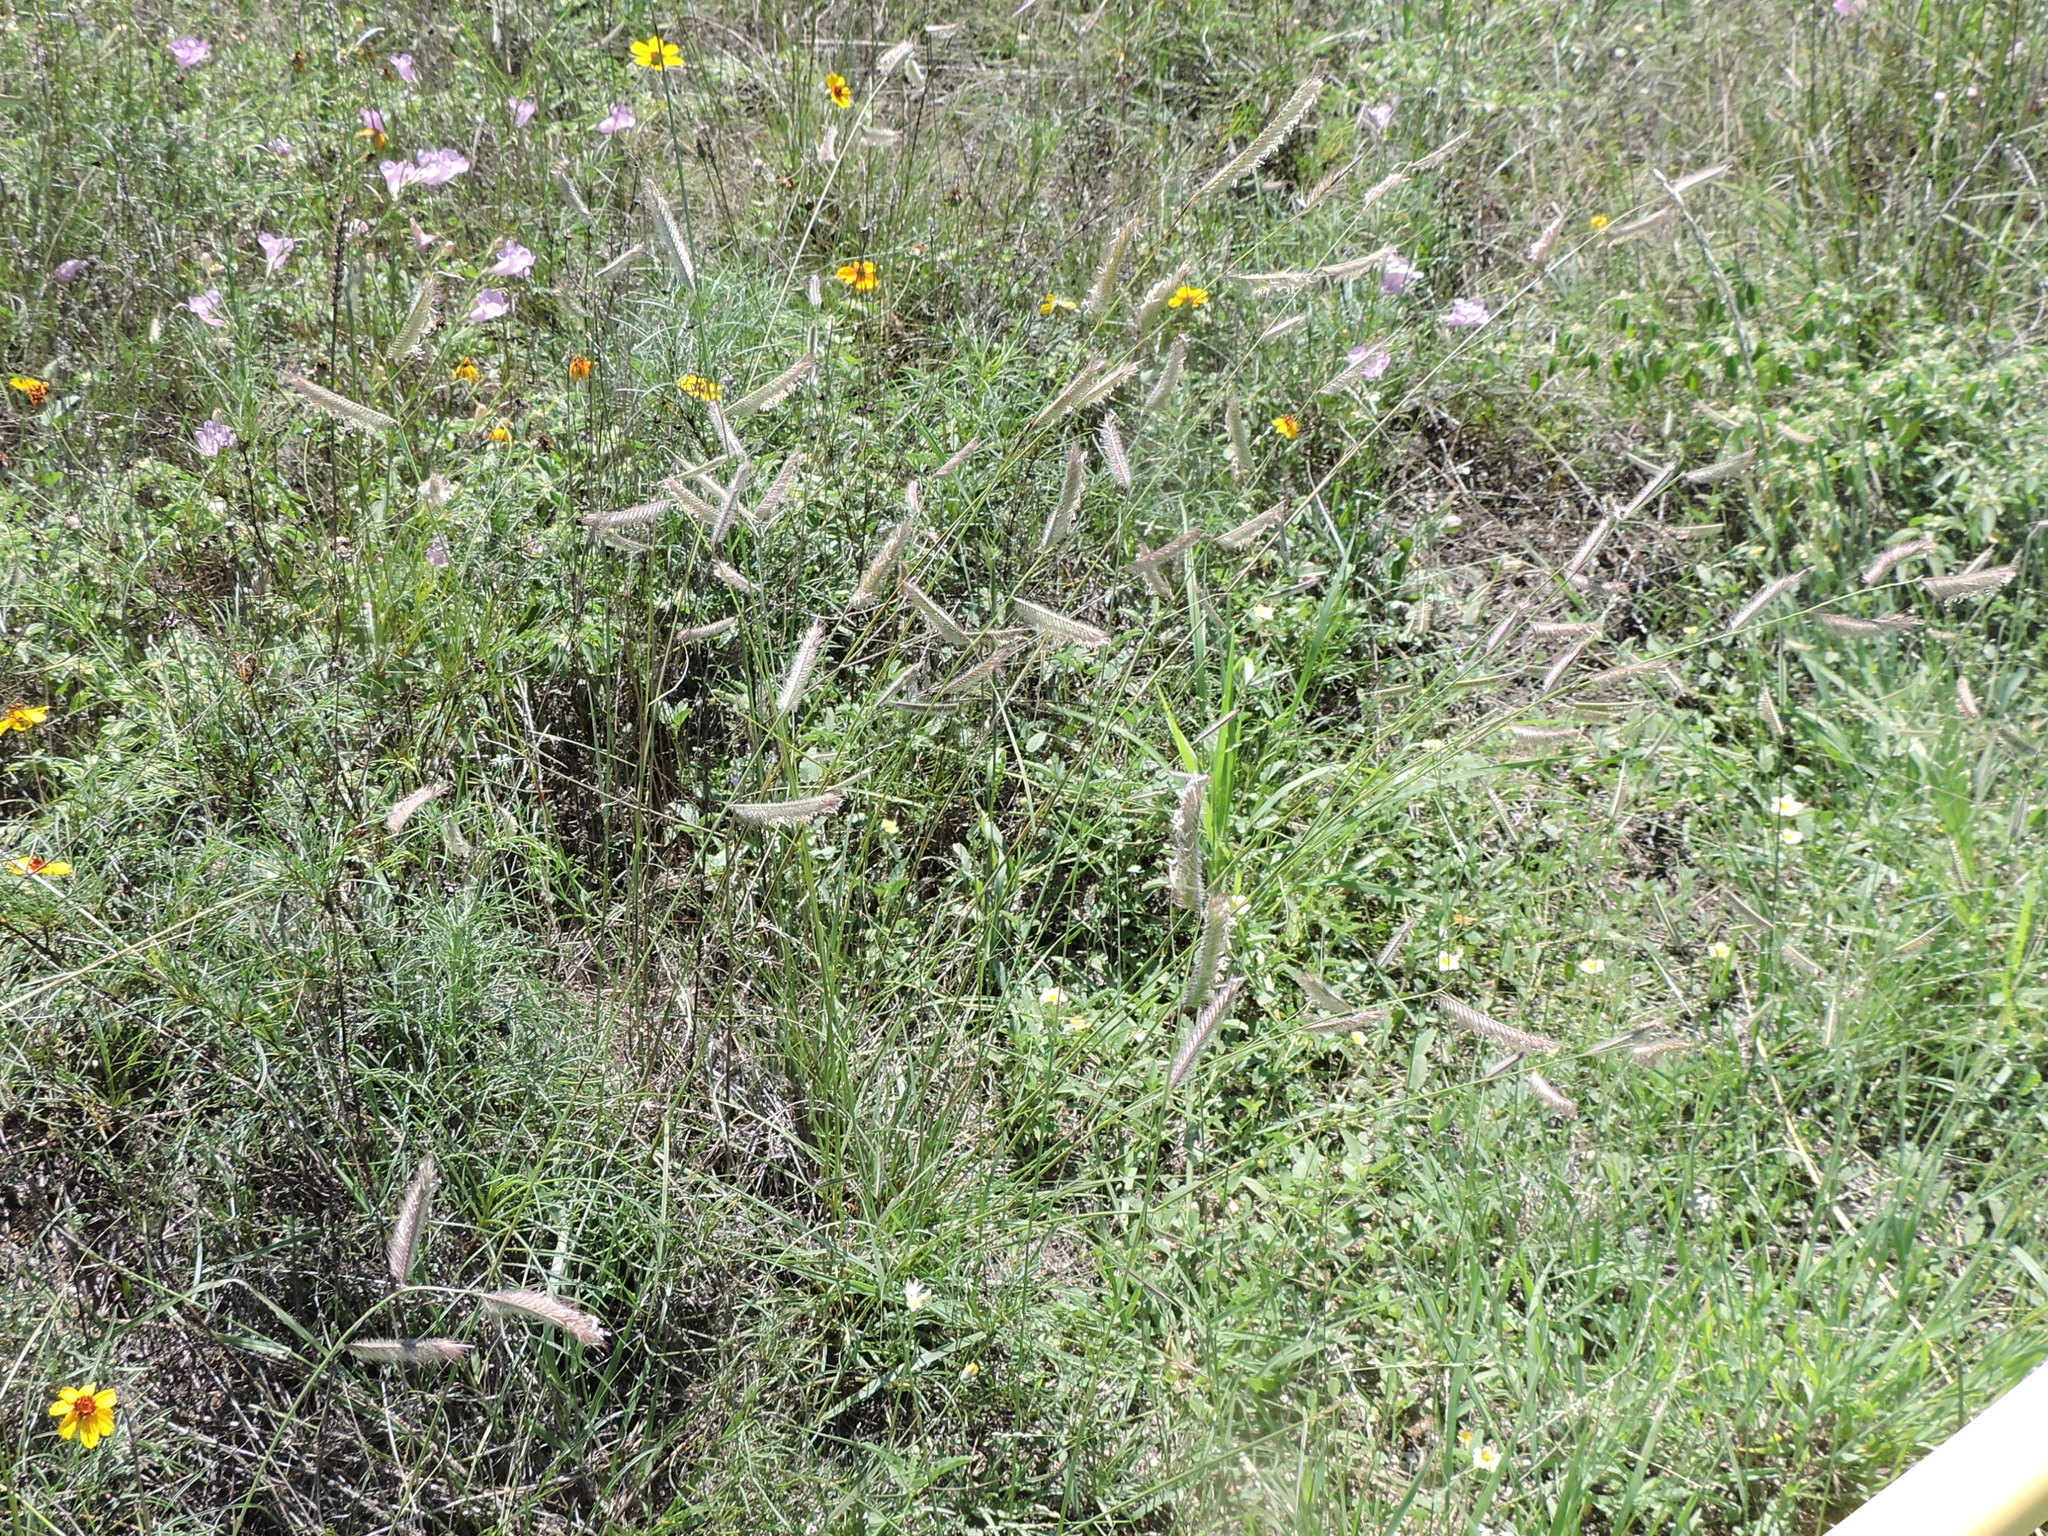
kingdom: Plantae
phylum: Tracheophyta
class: Liliopsida
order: Poales
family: Poaceae
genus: Bouteloua
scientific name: Bouteloua hirsuta
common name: Hairy grama
